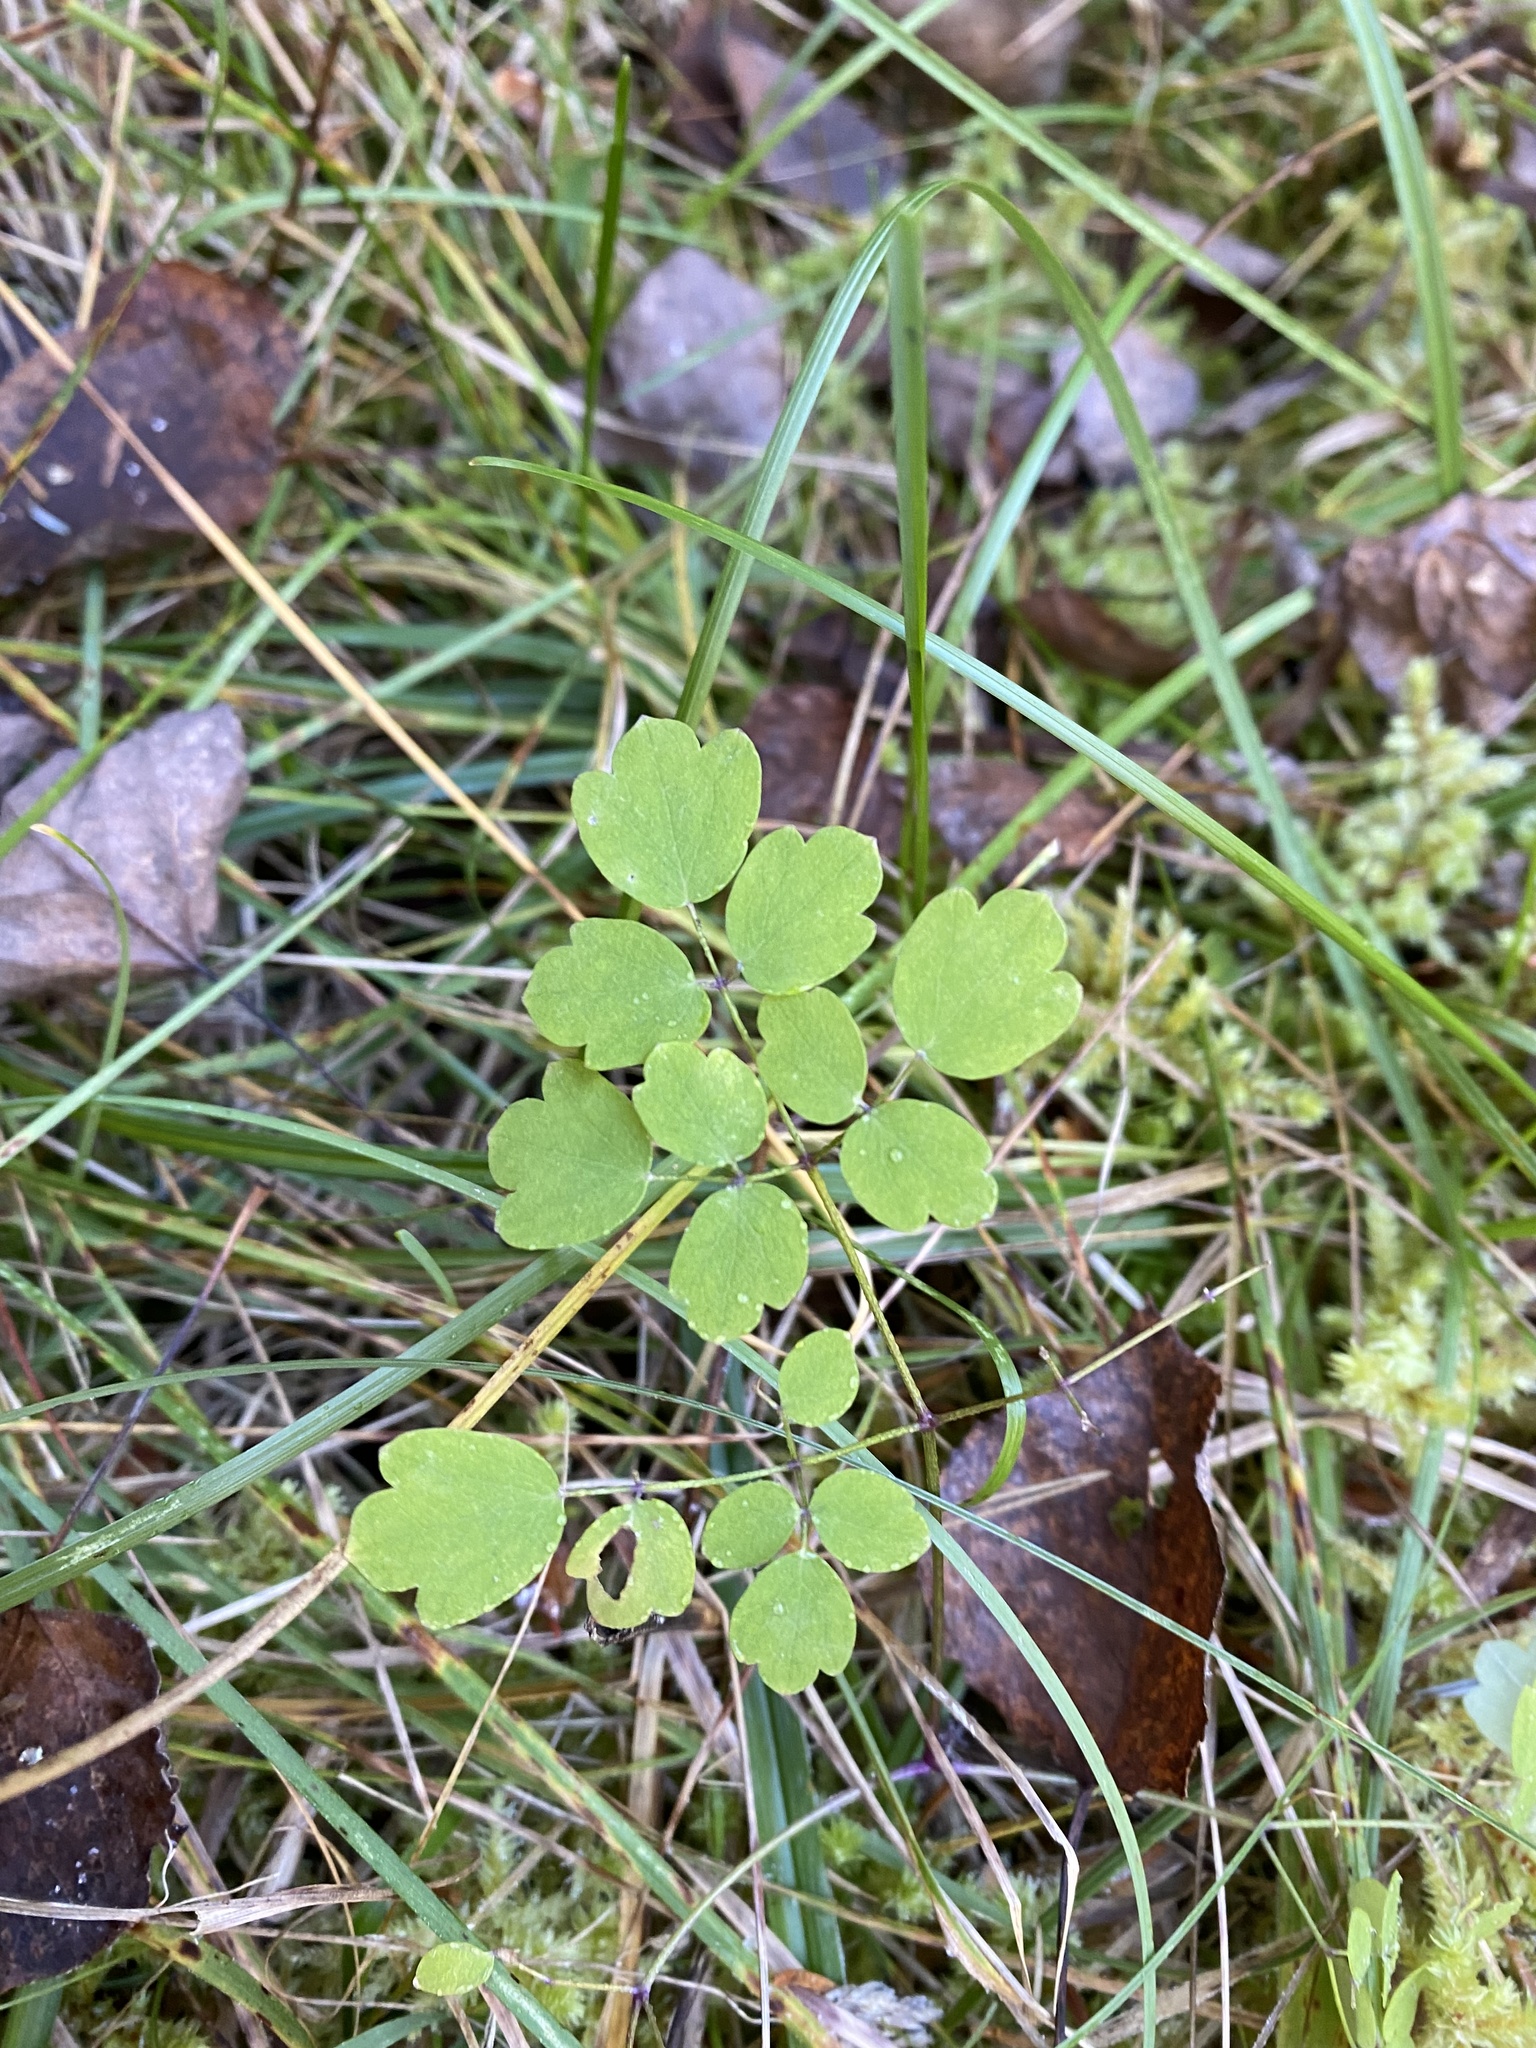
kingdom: Plantae
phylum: Tracheophyta
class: Magnoliopsida
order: Ranunculales
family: Ranunculaceae
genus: Thalictrum
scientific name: Thalictrum pubescens
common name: King-of-the-meadow
